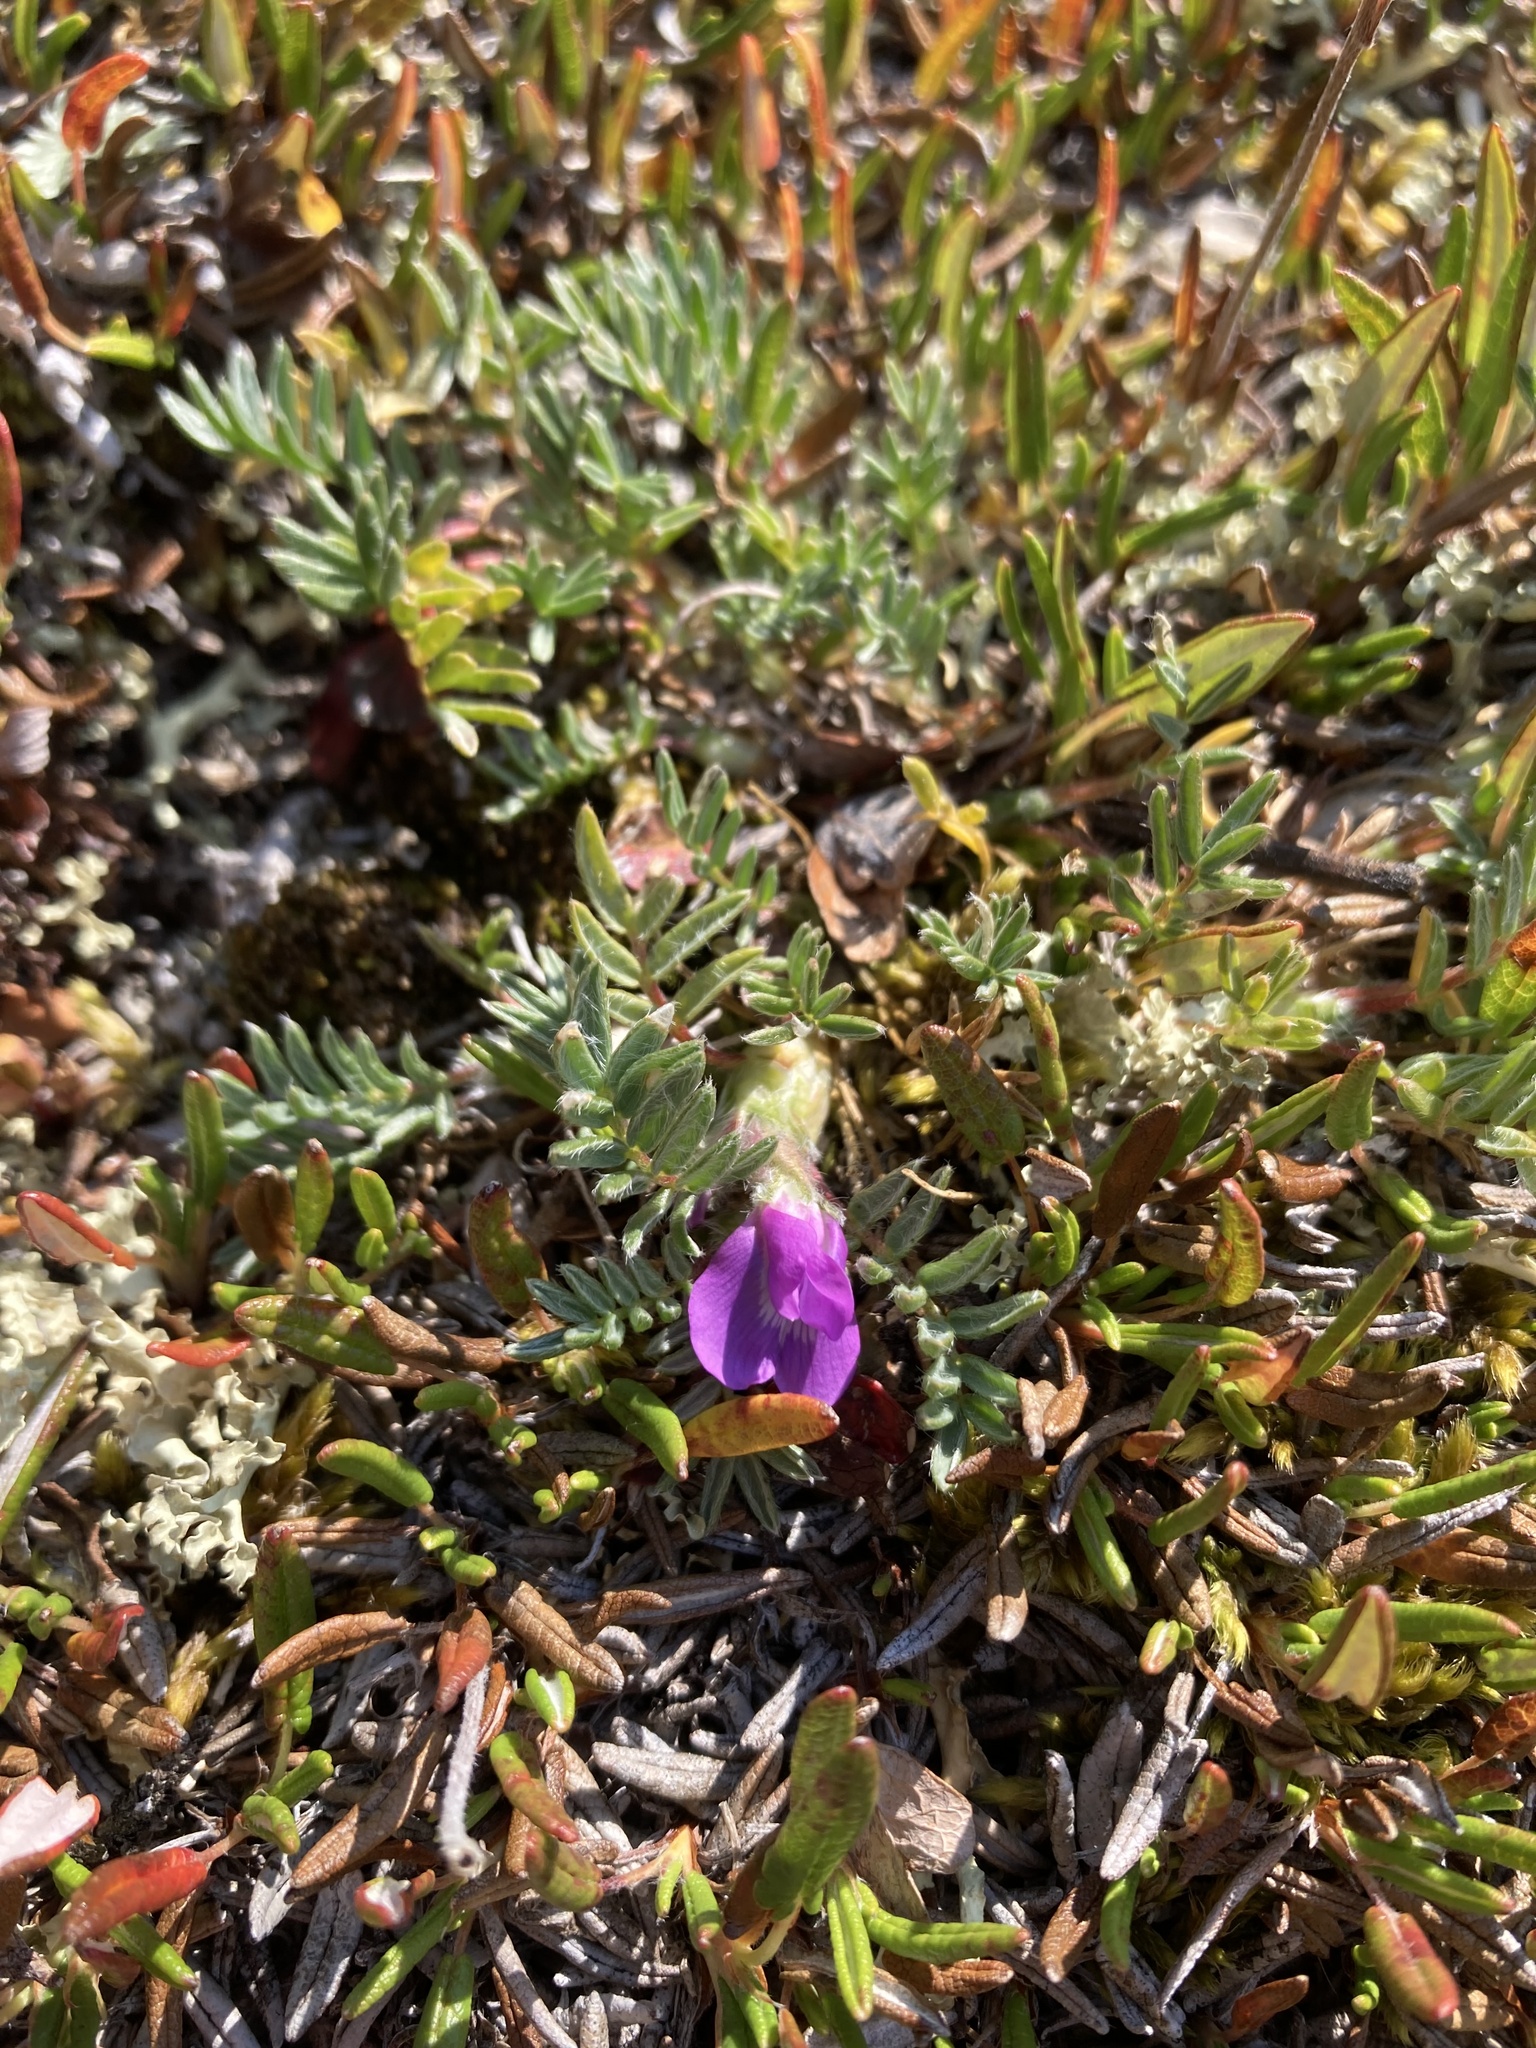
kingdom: Plantae
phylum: Tracheophyta
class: Magnoliopsida
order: Fabales
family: Fabaceae
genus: Oxytropis
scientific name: Oxytropis podocarpa
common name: Gray's oxytrope
